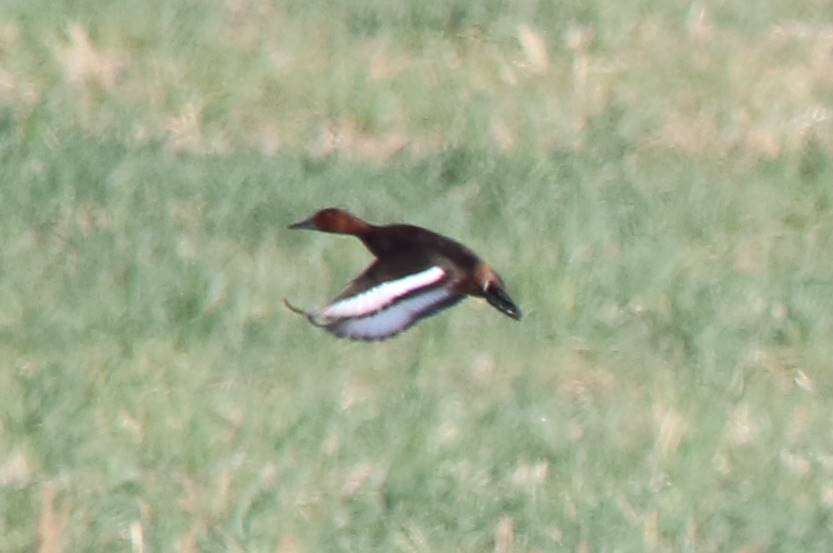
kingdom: Animalia
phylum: Chordata
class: Aves
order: Anseriformes
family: Anatidae
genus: Aythya
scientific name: Aythya nyroca
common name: Ferruginous duck
